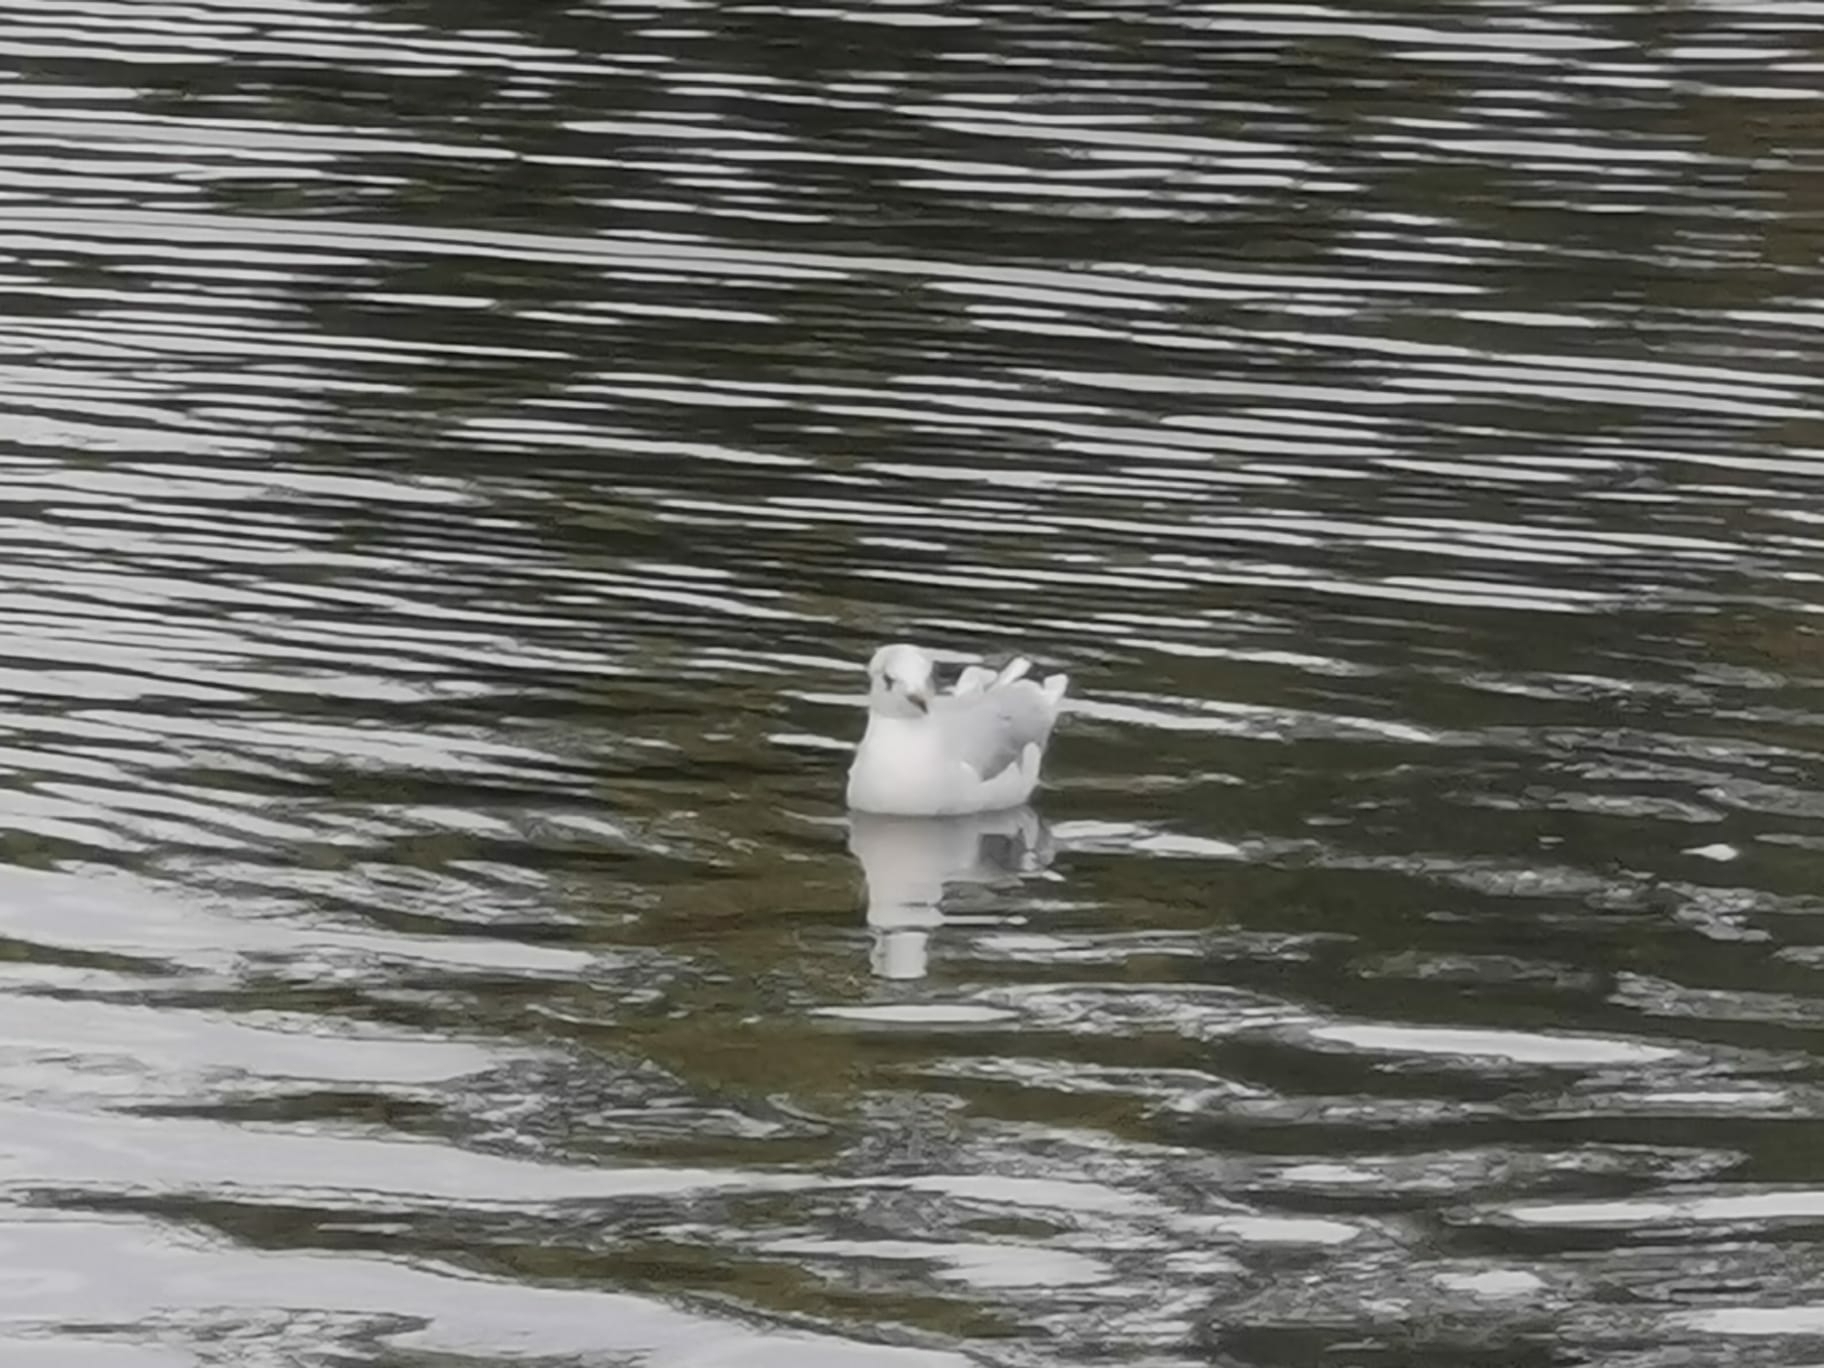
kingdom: Animalia
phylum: Chordata
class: Aves
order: Charadriiformes
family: Laridae
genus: Hydrocoloeus
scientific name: Hydrocoloeus minutus
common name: Little gull
